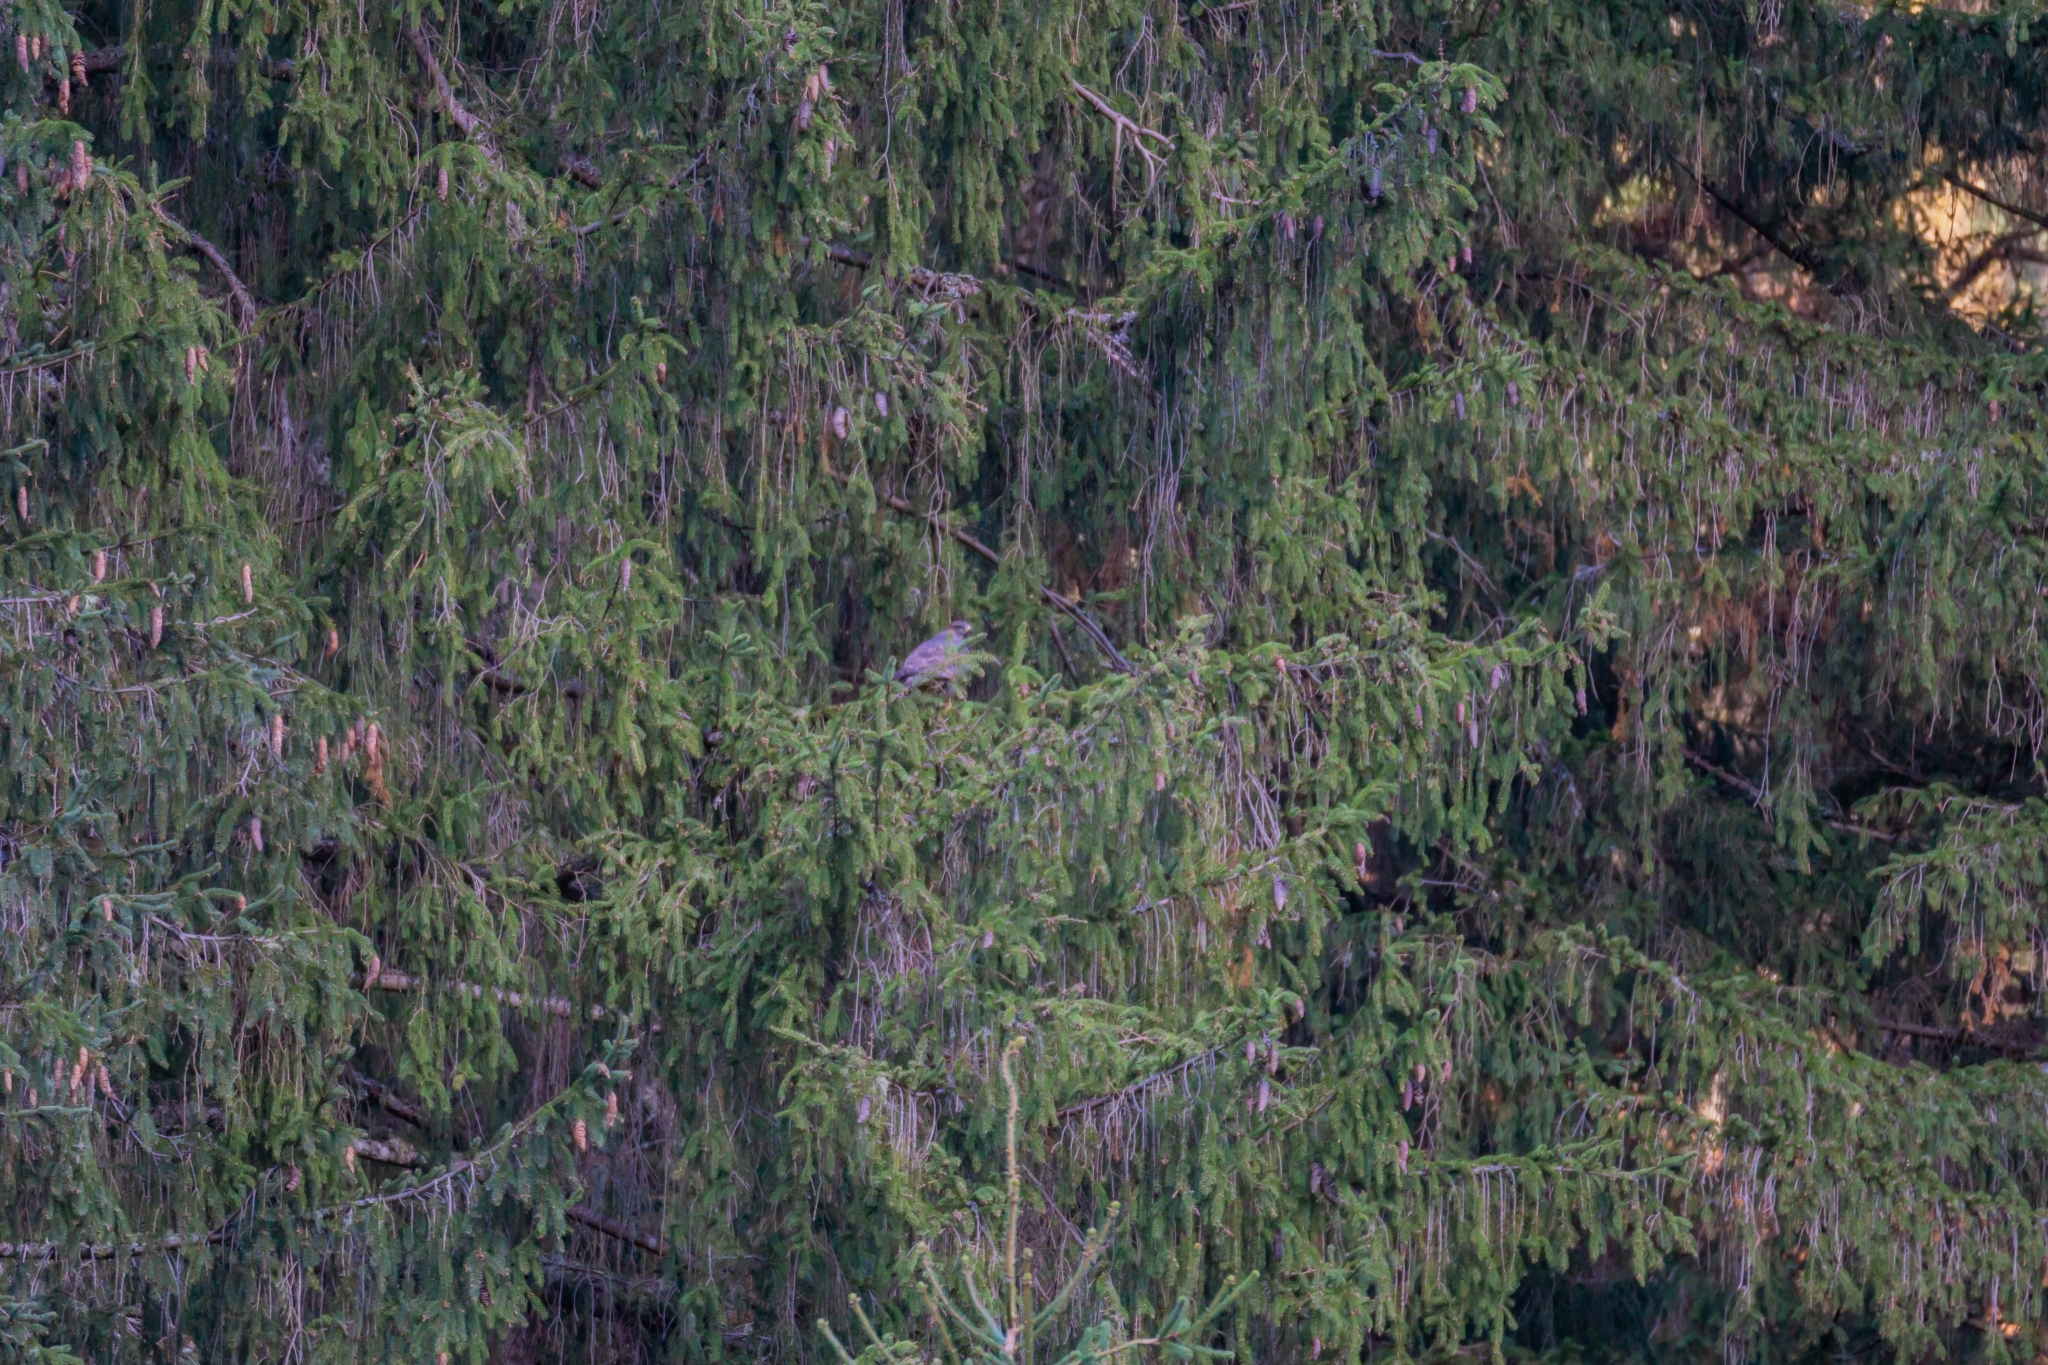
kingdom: Animalia
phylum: Chordata
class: Aves
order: Accipitriformes
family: Accipitridae
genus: Buteo
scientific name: Buteo buteo
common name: Common buzzard
